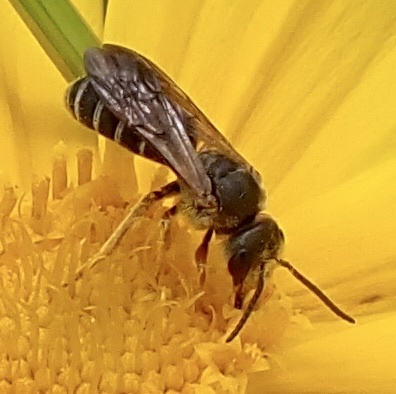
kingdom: Animalia
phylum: Arthropoda
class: Insecta
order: Hymenoptera
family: Halictidae
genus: Halictus
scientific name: Halictus parallelus
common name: Parallel-striped sweat bee
